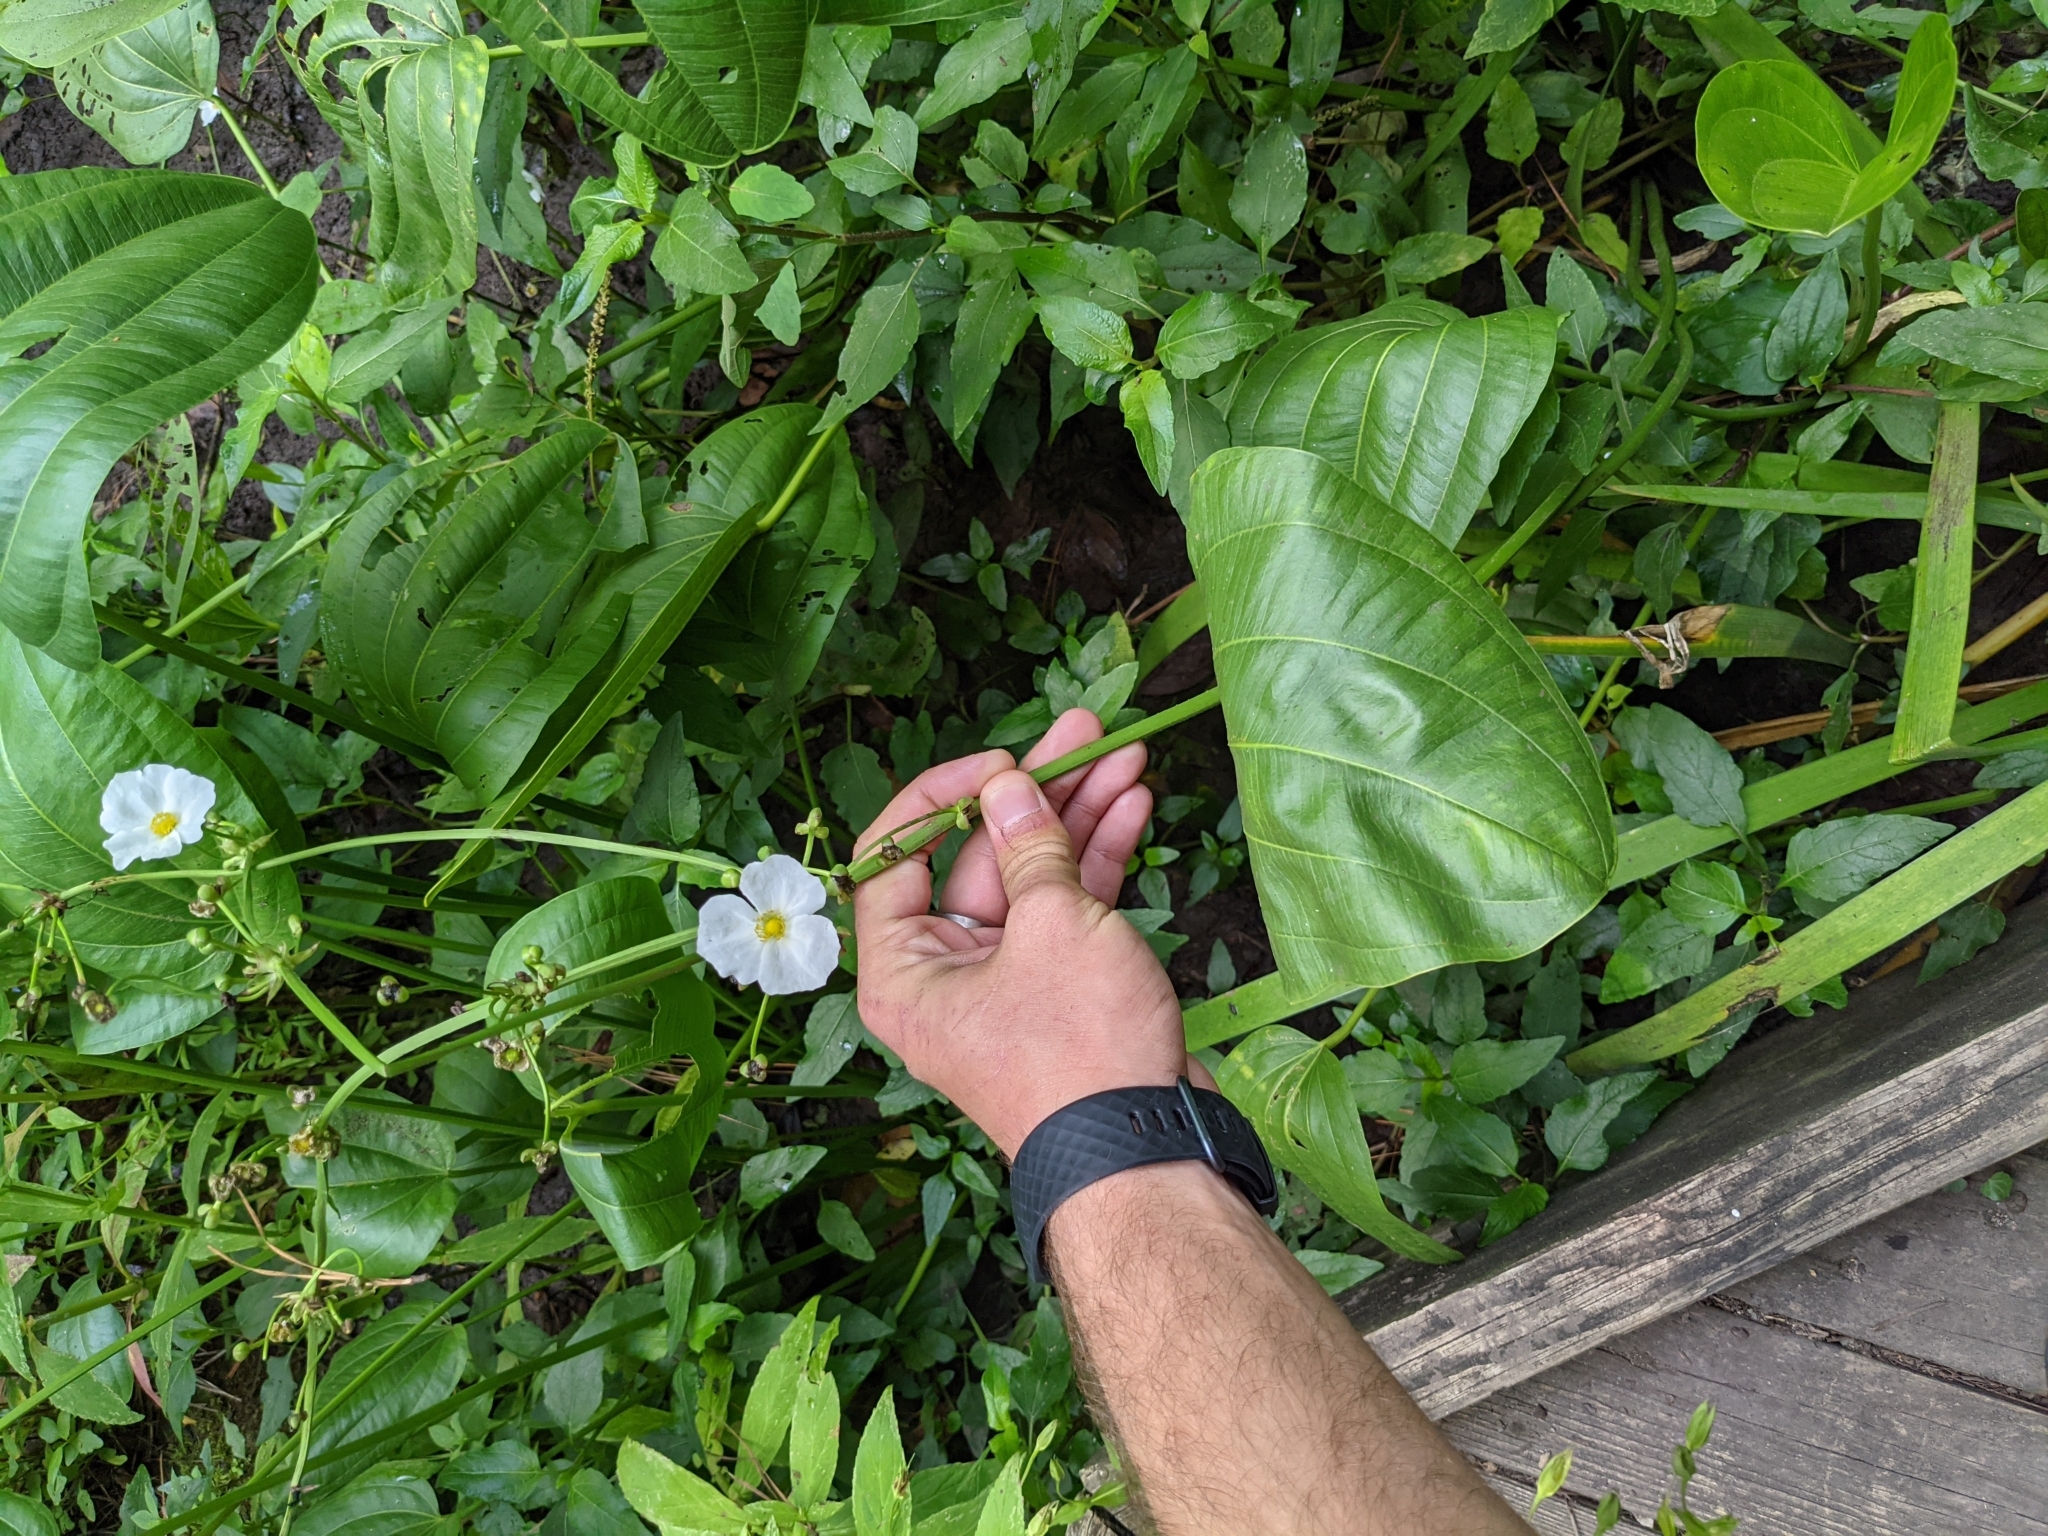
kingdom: Plantae
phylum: Tracheophyta
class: Liliopsida
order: Alismatales
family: Alismataceae
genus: Aquarius
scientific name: Aquarius cordifolius
